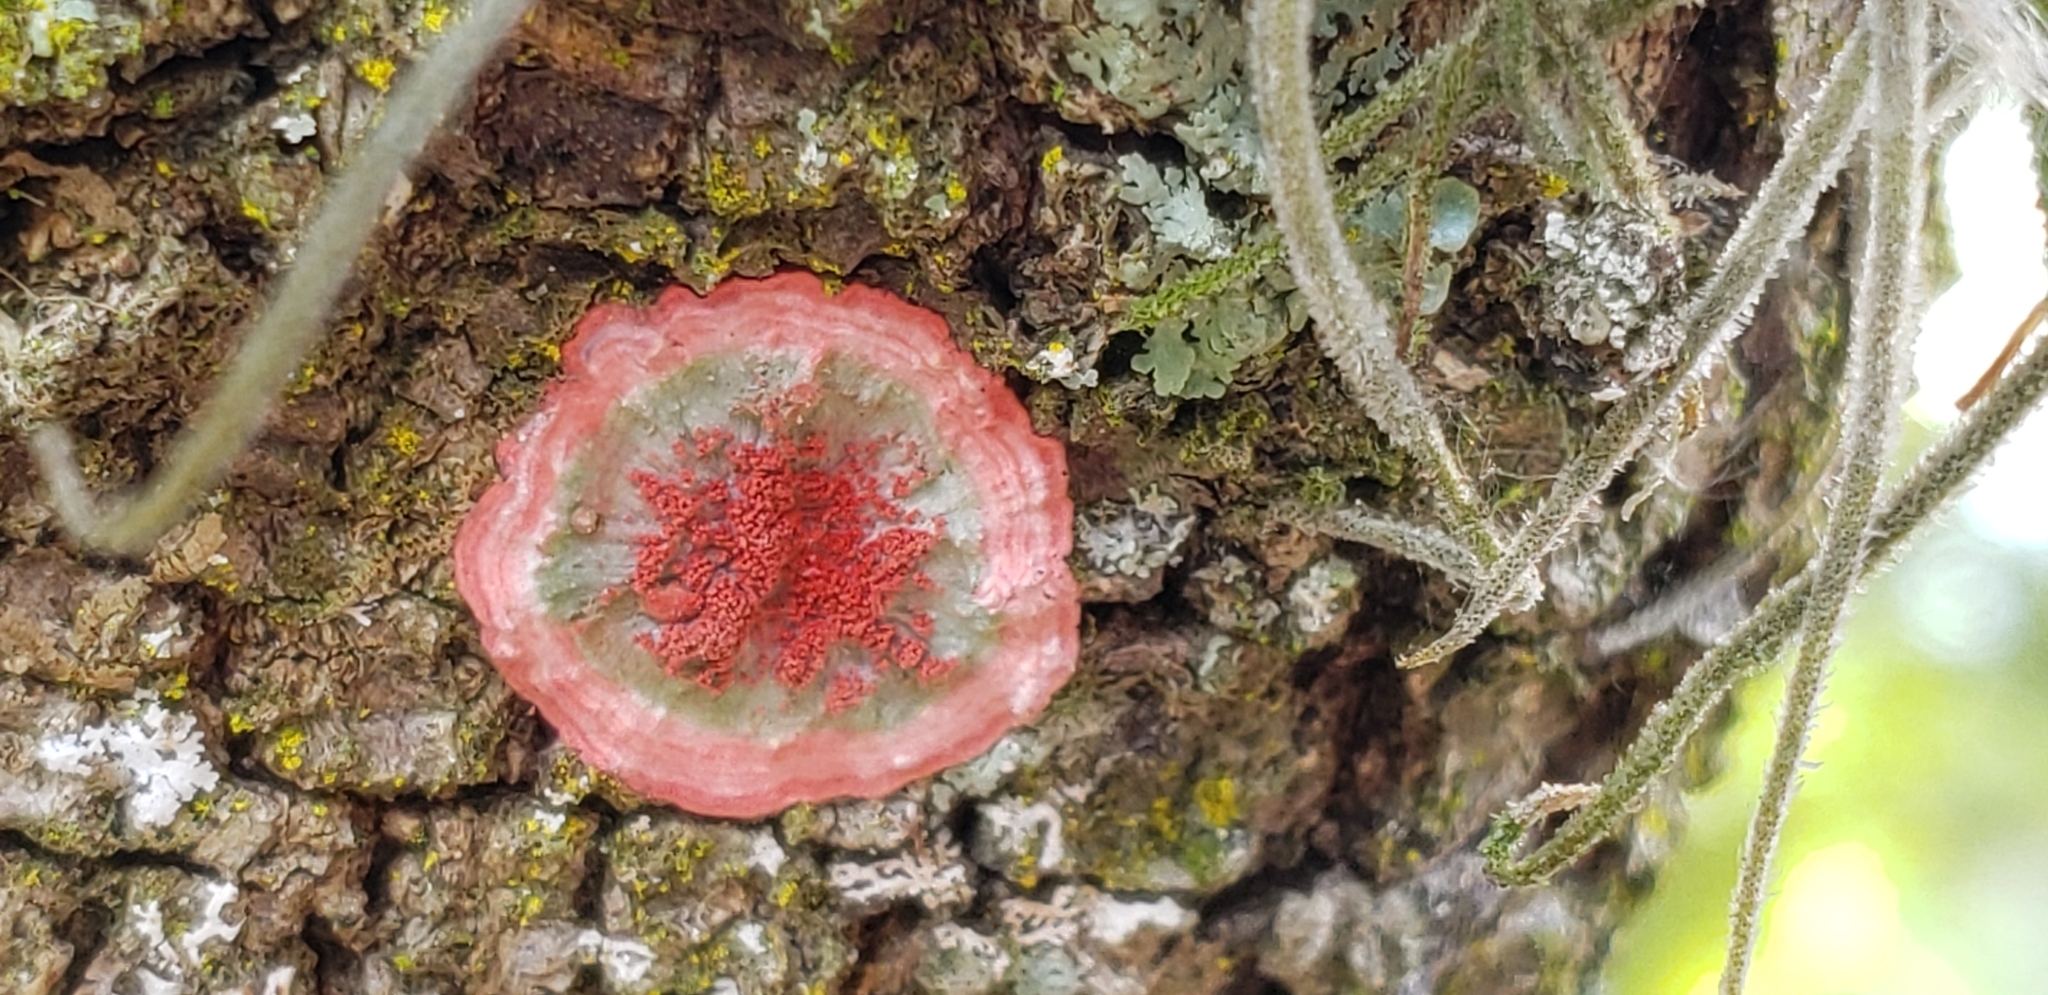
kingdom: Fungi
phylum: Ascomycota
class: Arthoniomycetes
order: Arthoniales
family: Arthoniaceae
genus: Herpothallon
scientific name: Herpothallon rubrocinctum
